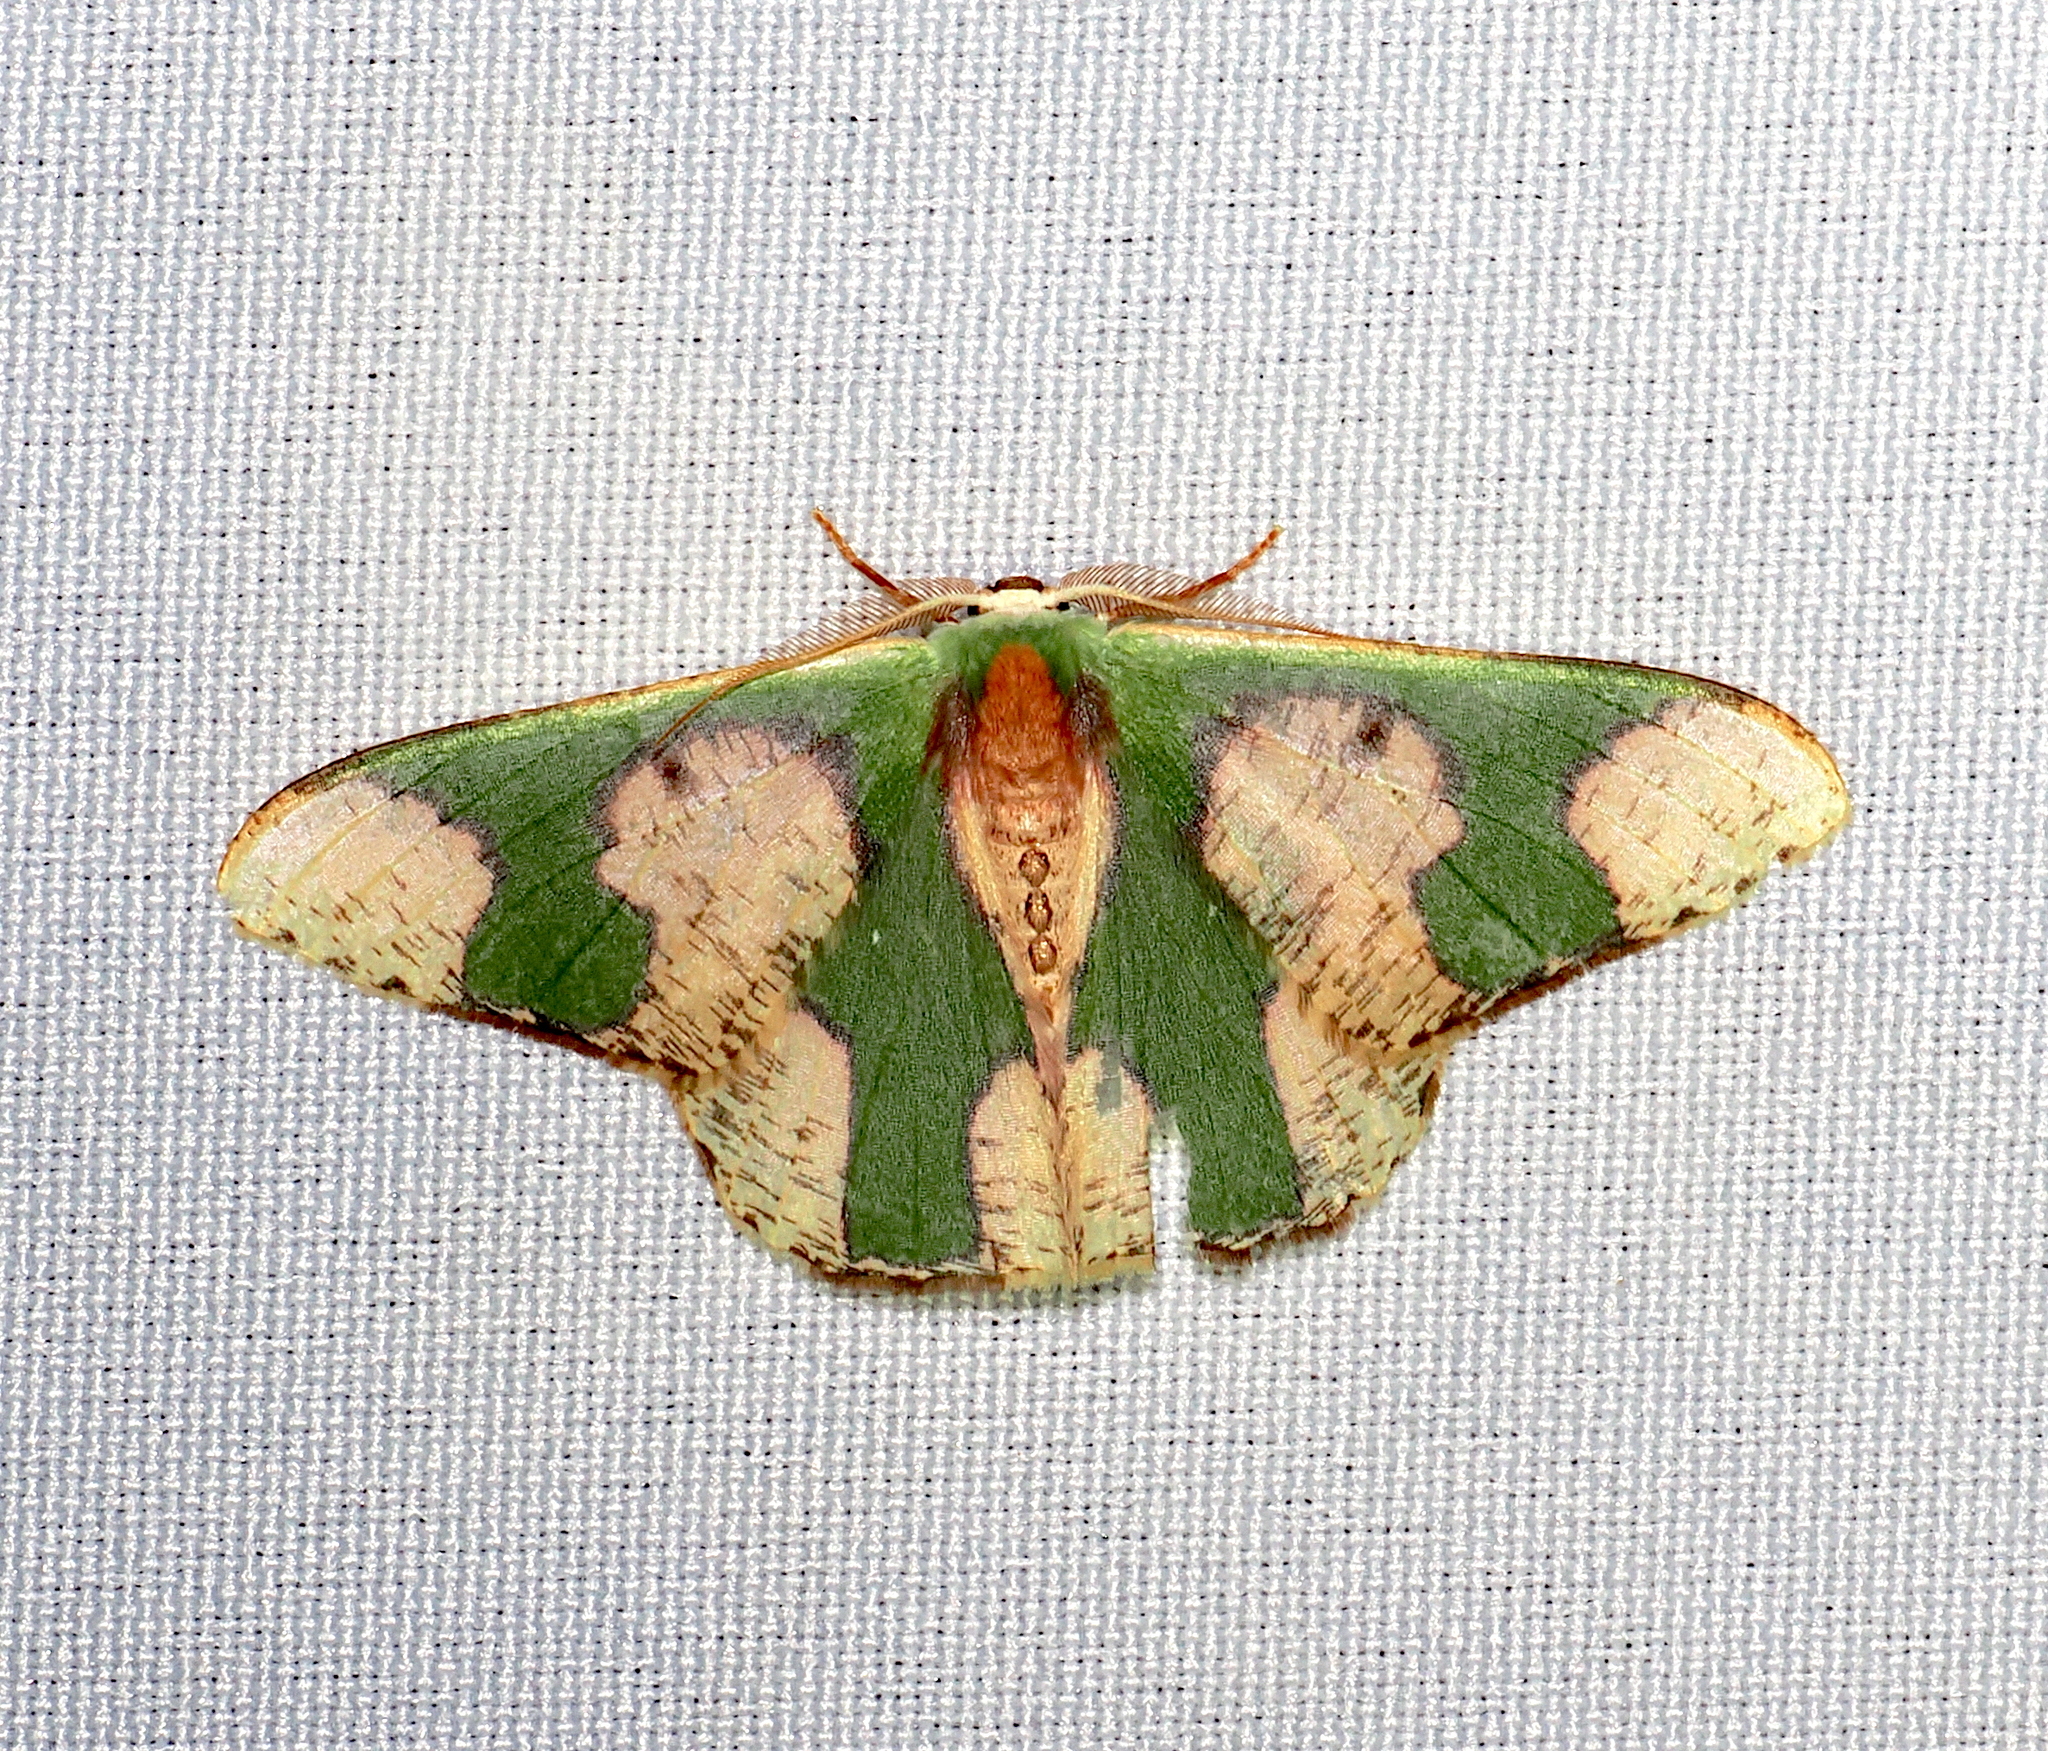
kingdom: Animalia
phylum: Arthropoda
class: Insecta
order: Lepidoptera
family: Geometridae
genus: Oospila
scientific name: Oospila
